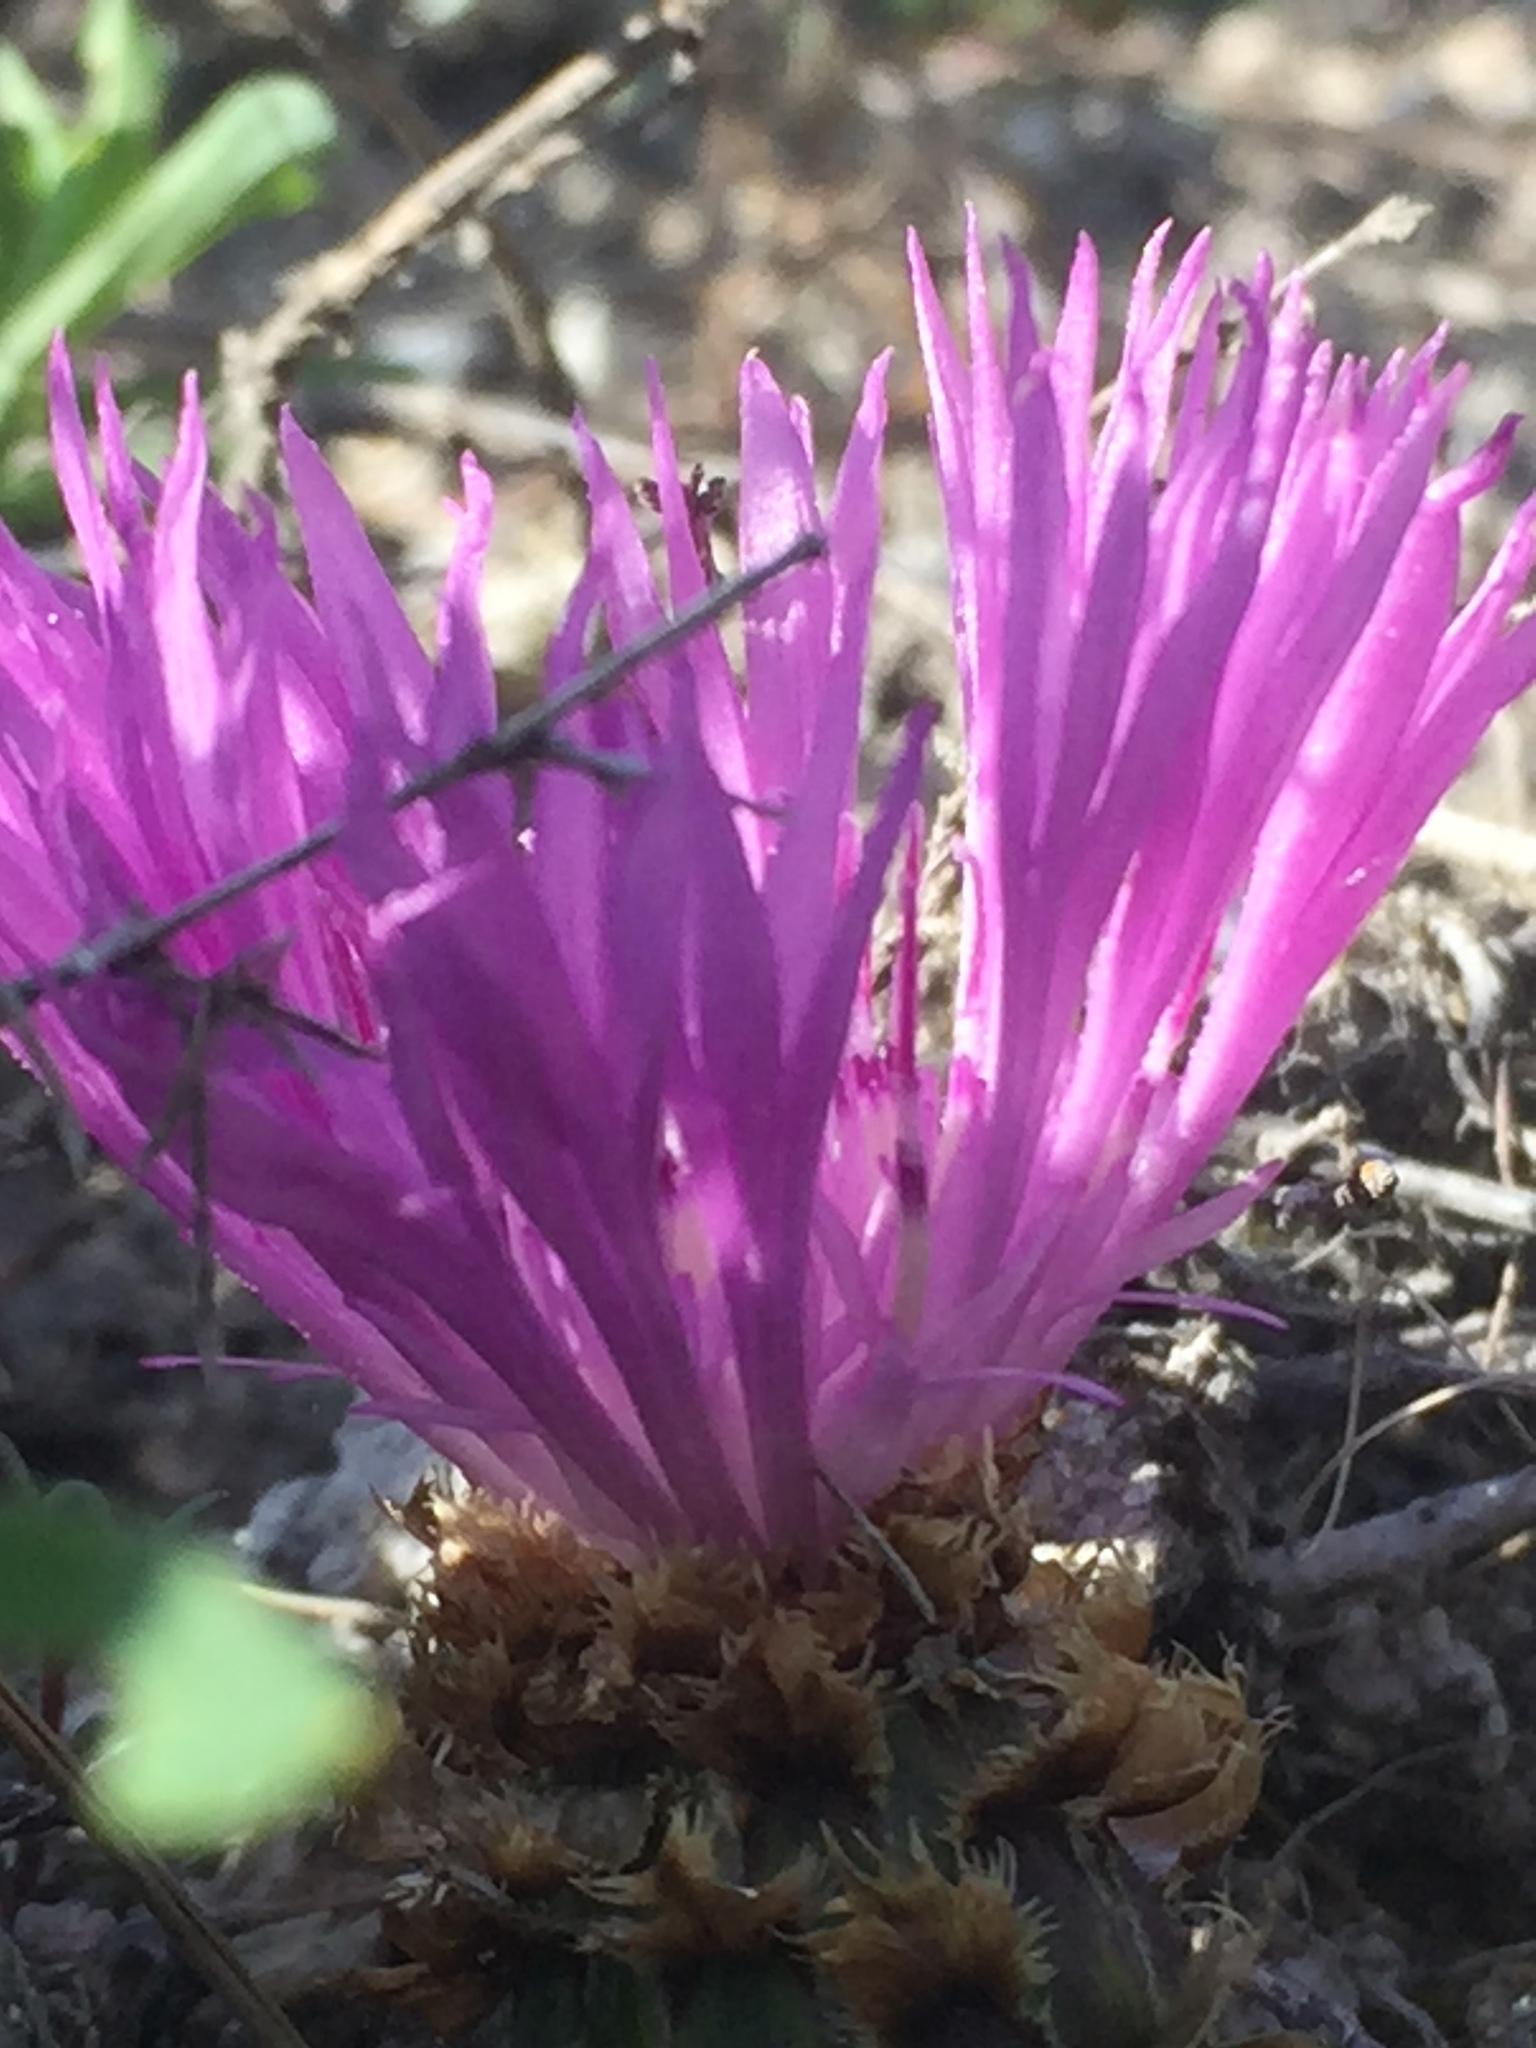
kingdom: Plantae
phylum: Tracheophyta
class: Magnoliopsida
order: Asterales
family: Asteraceae
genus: Psephellus
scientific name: Psephellus marschallianus
